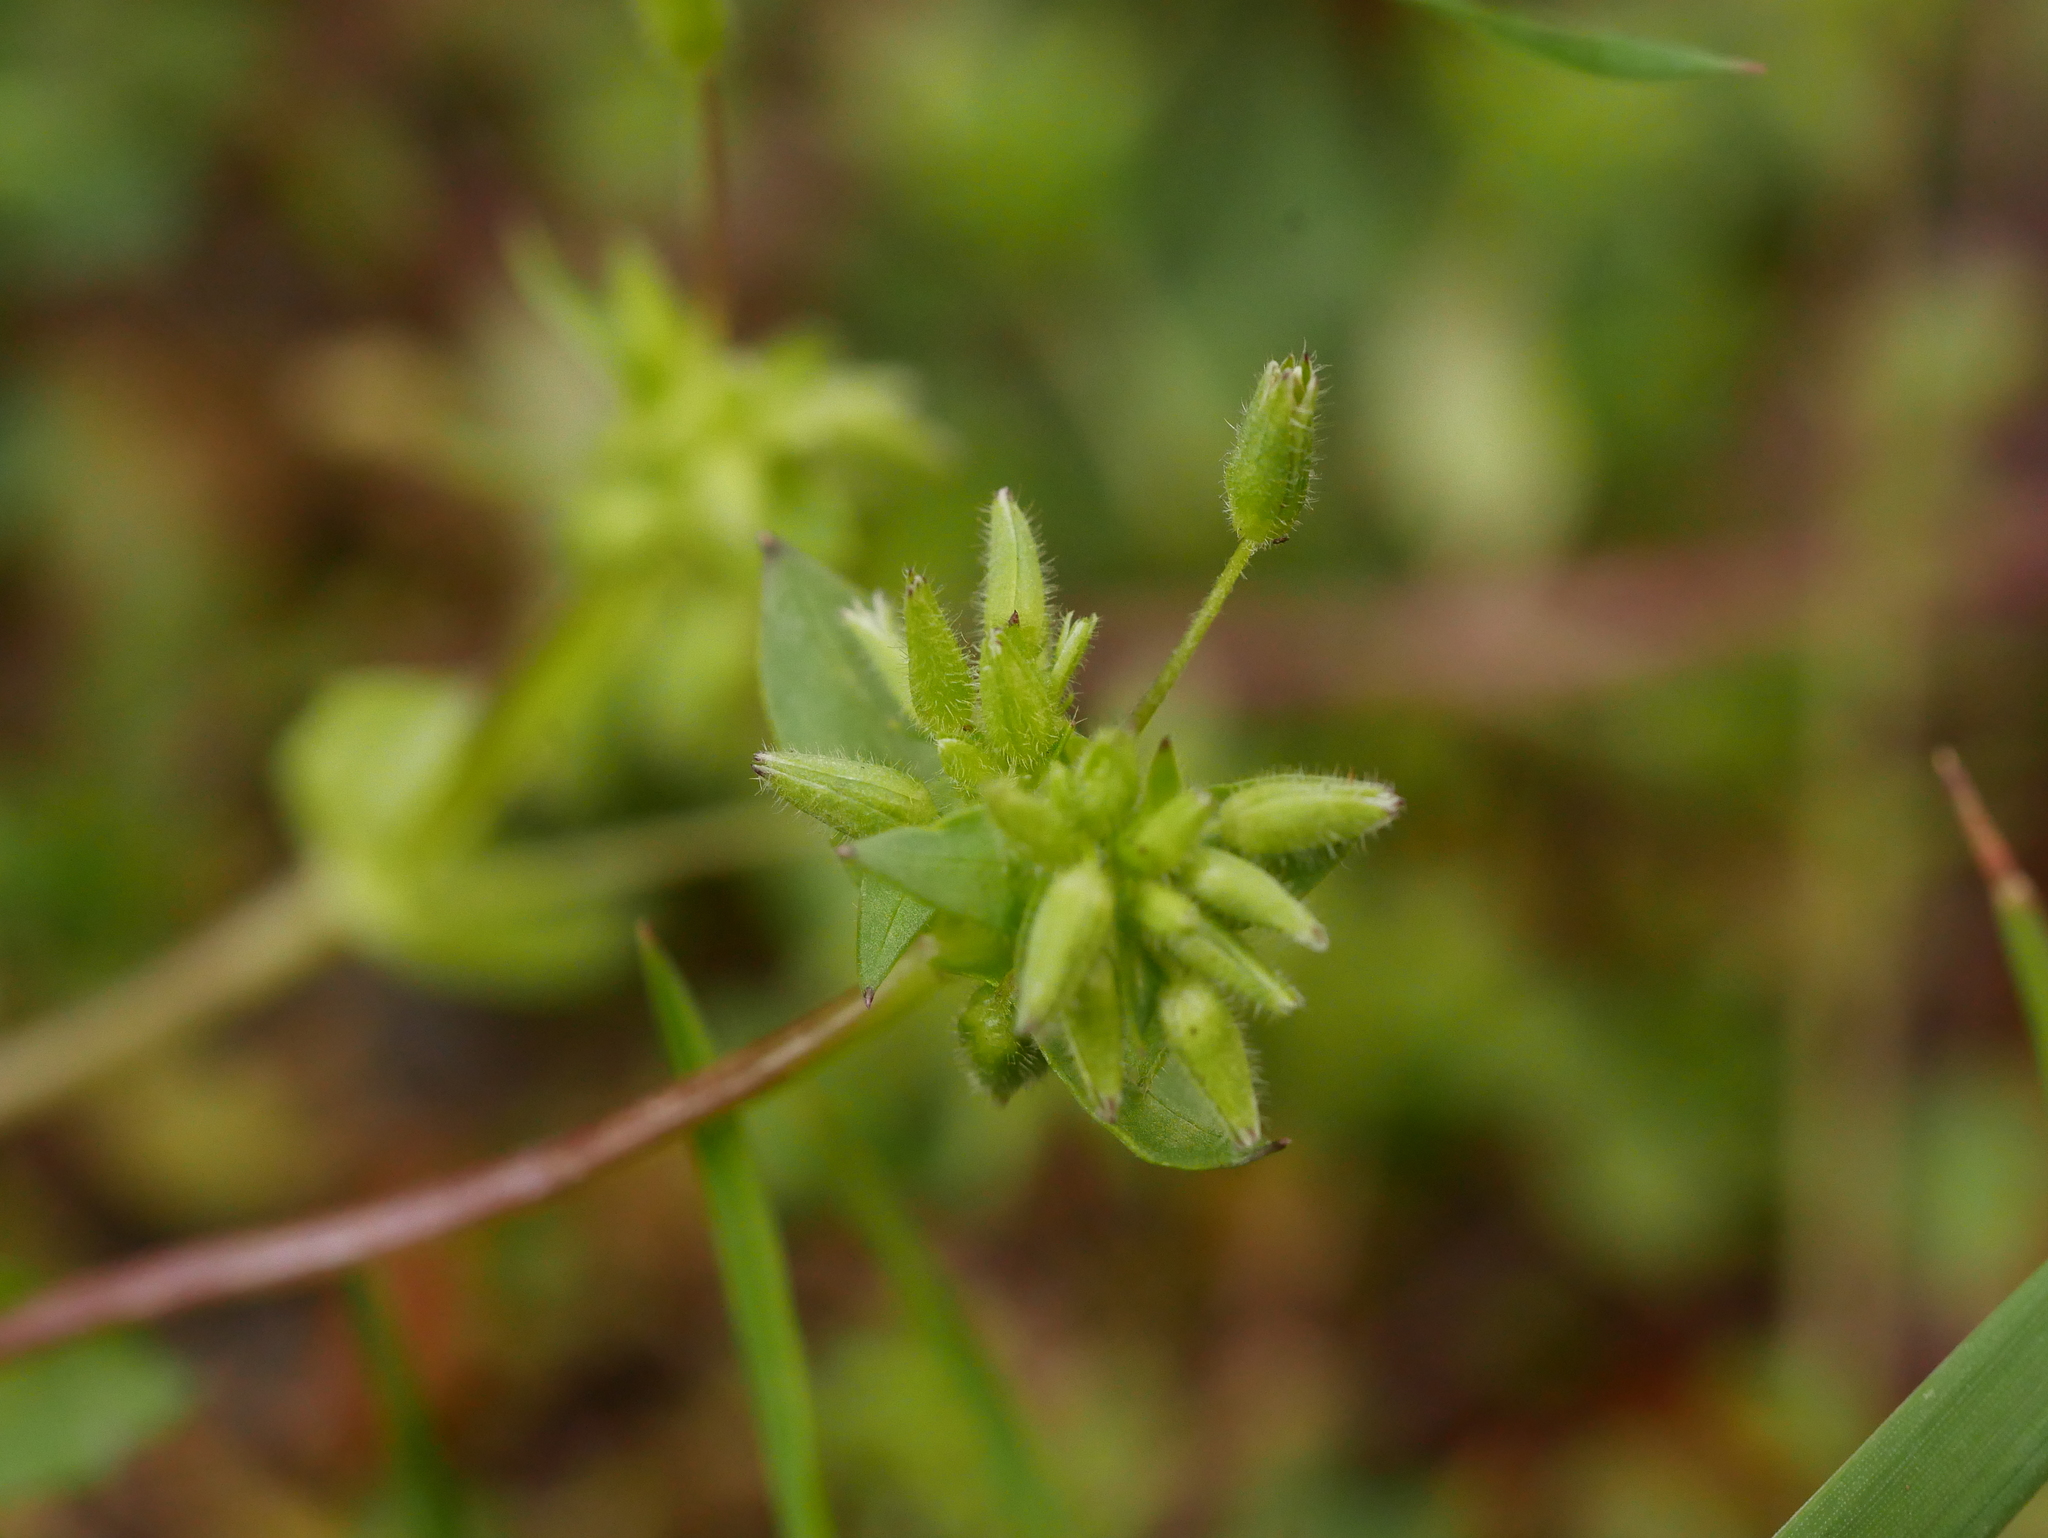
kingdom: Plantae
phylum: Tracheophyta
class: Magnoliopsida
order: Caryophyllales
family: Caryophyllaceae
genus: Stellaria
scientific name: Stellaria media
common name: Common chickweed
